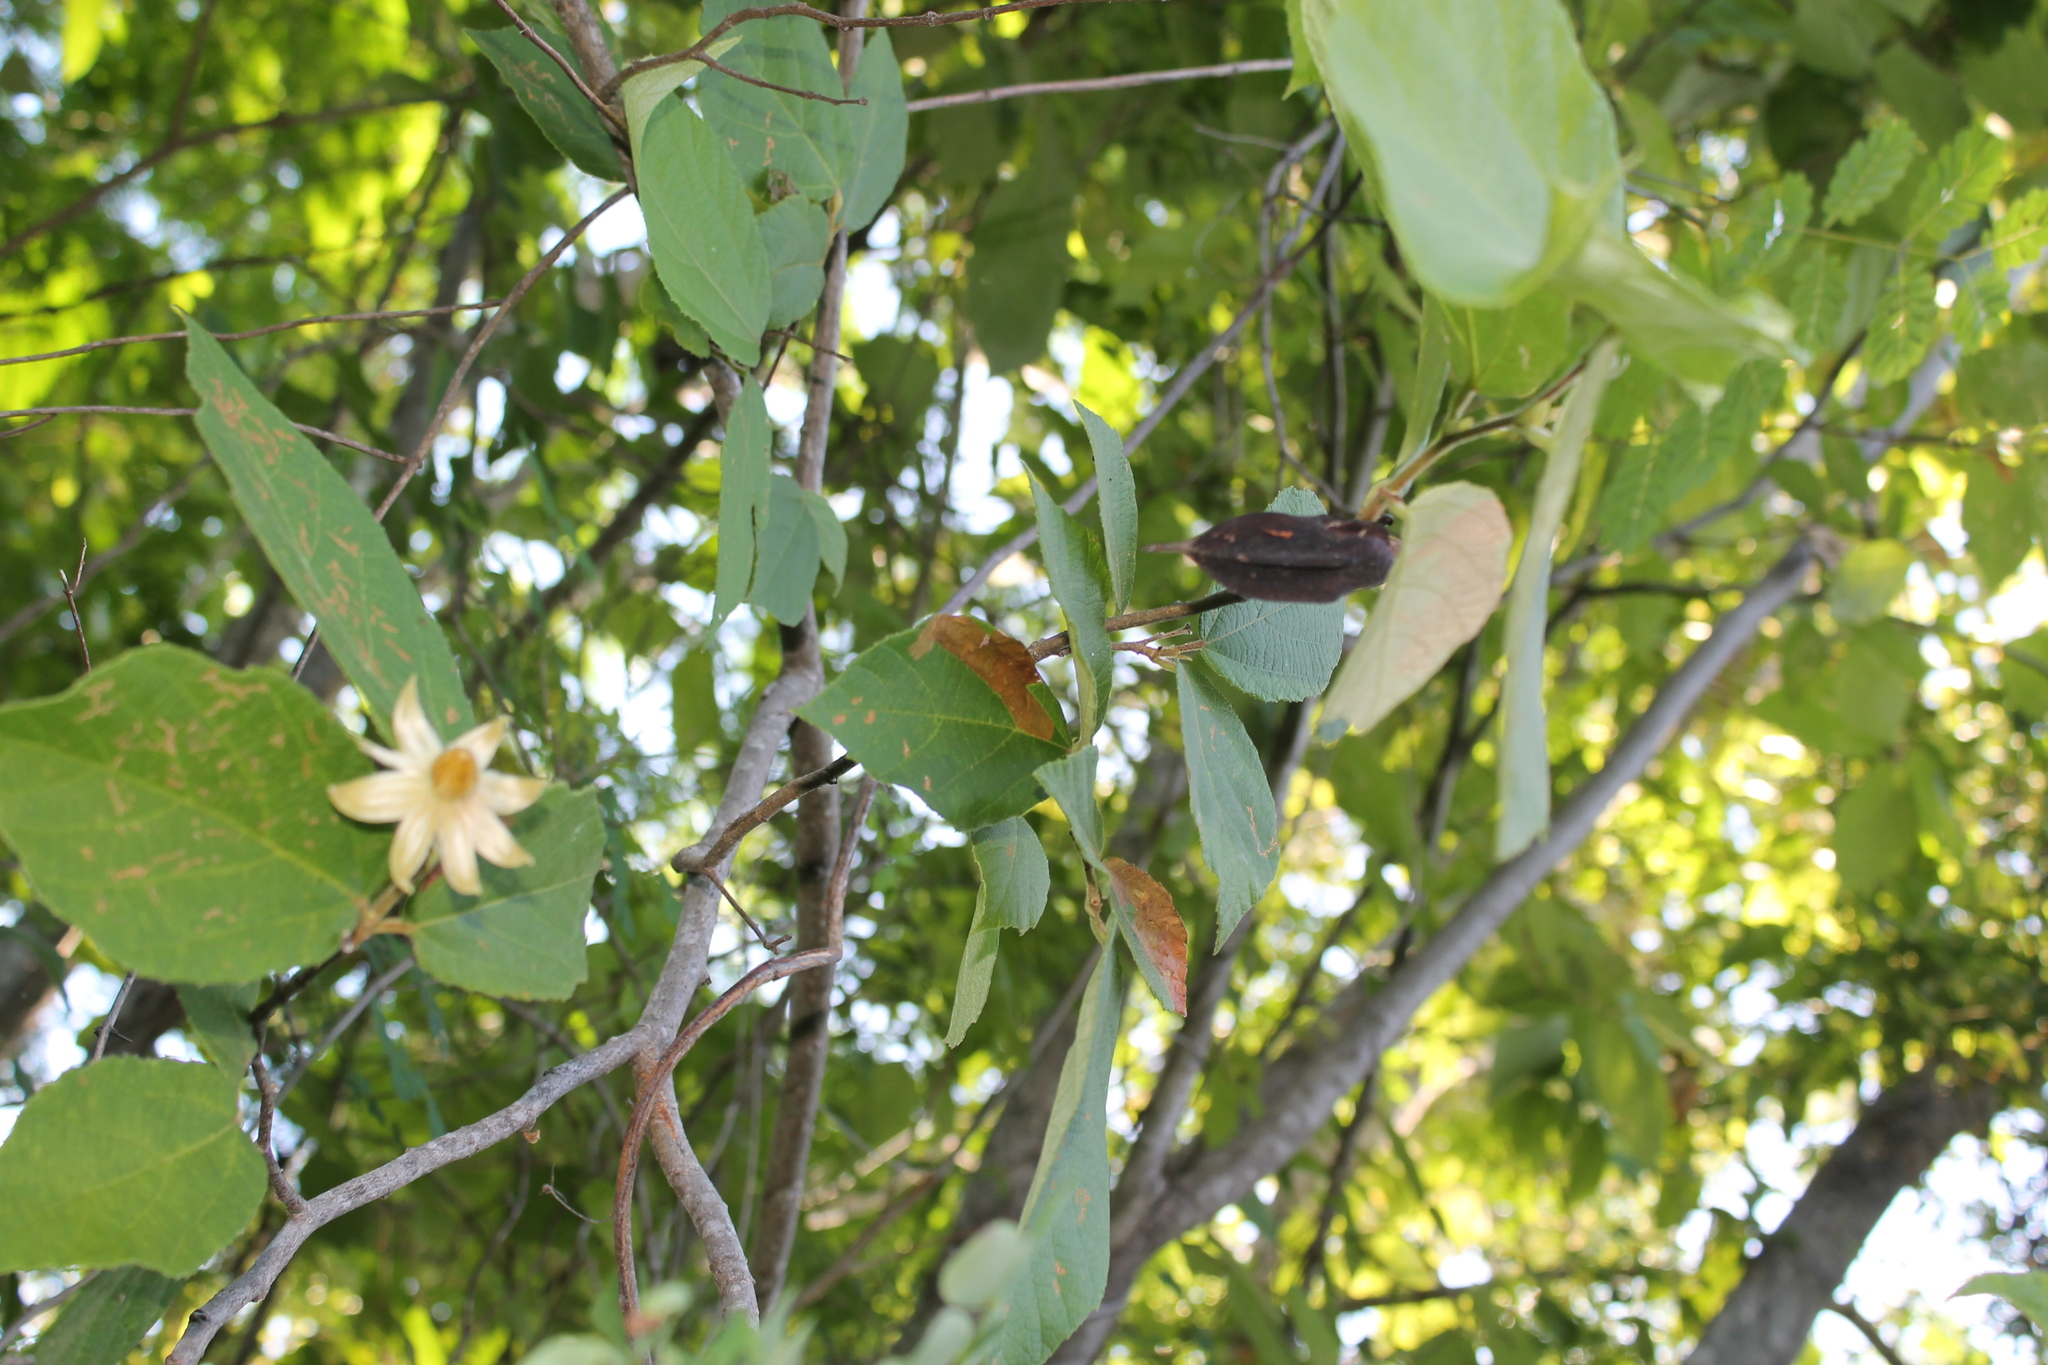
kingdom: Plantae
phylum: Tracheophyta
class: Magnoliopsida
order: Malvales
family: Malvaceae
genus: Luehea
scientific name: Luehea candida
